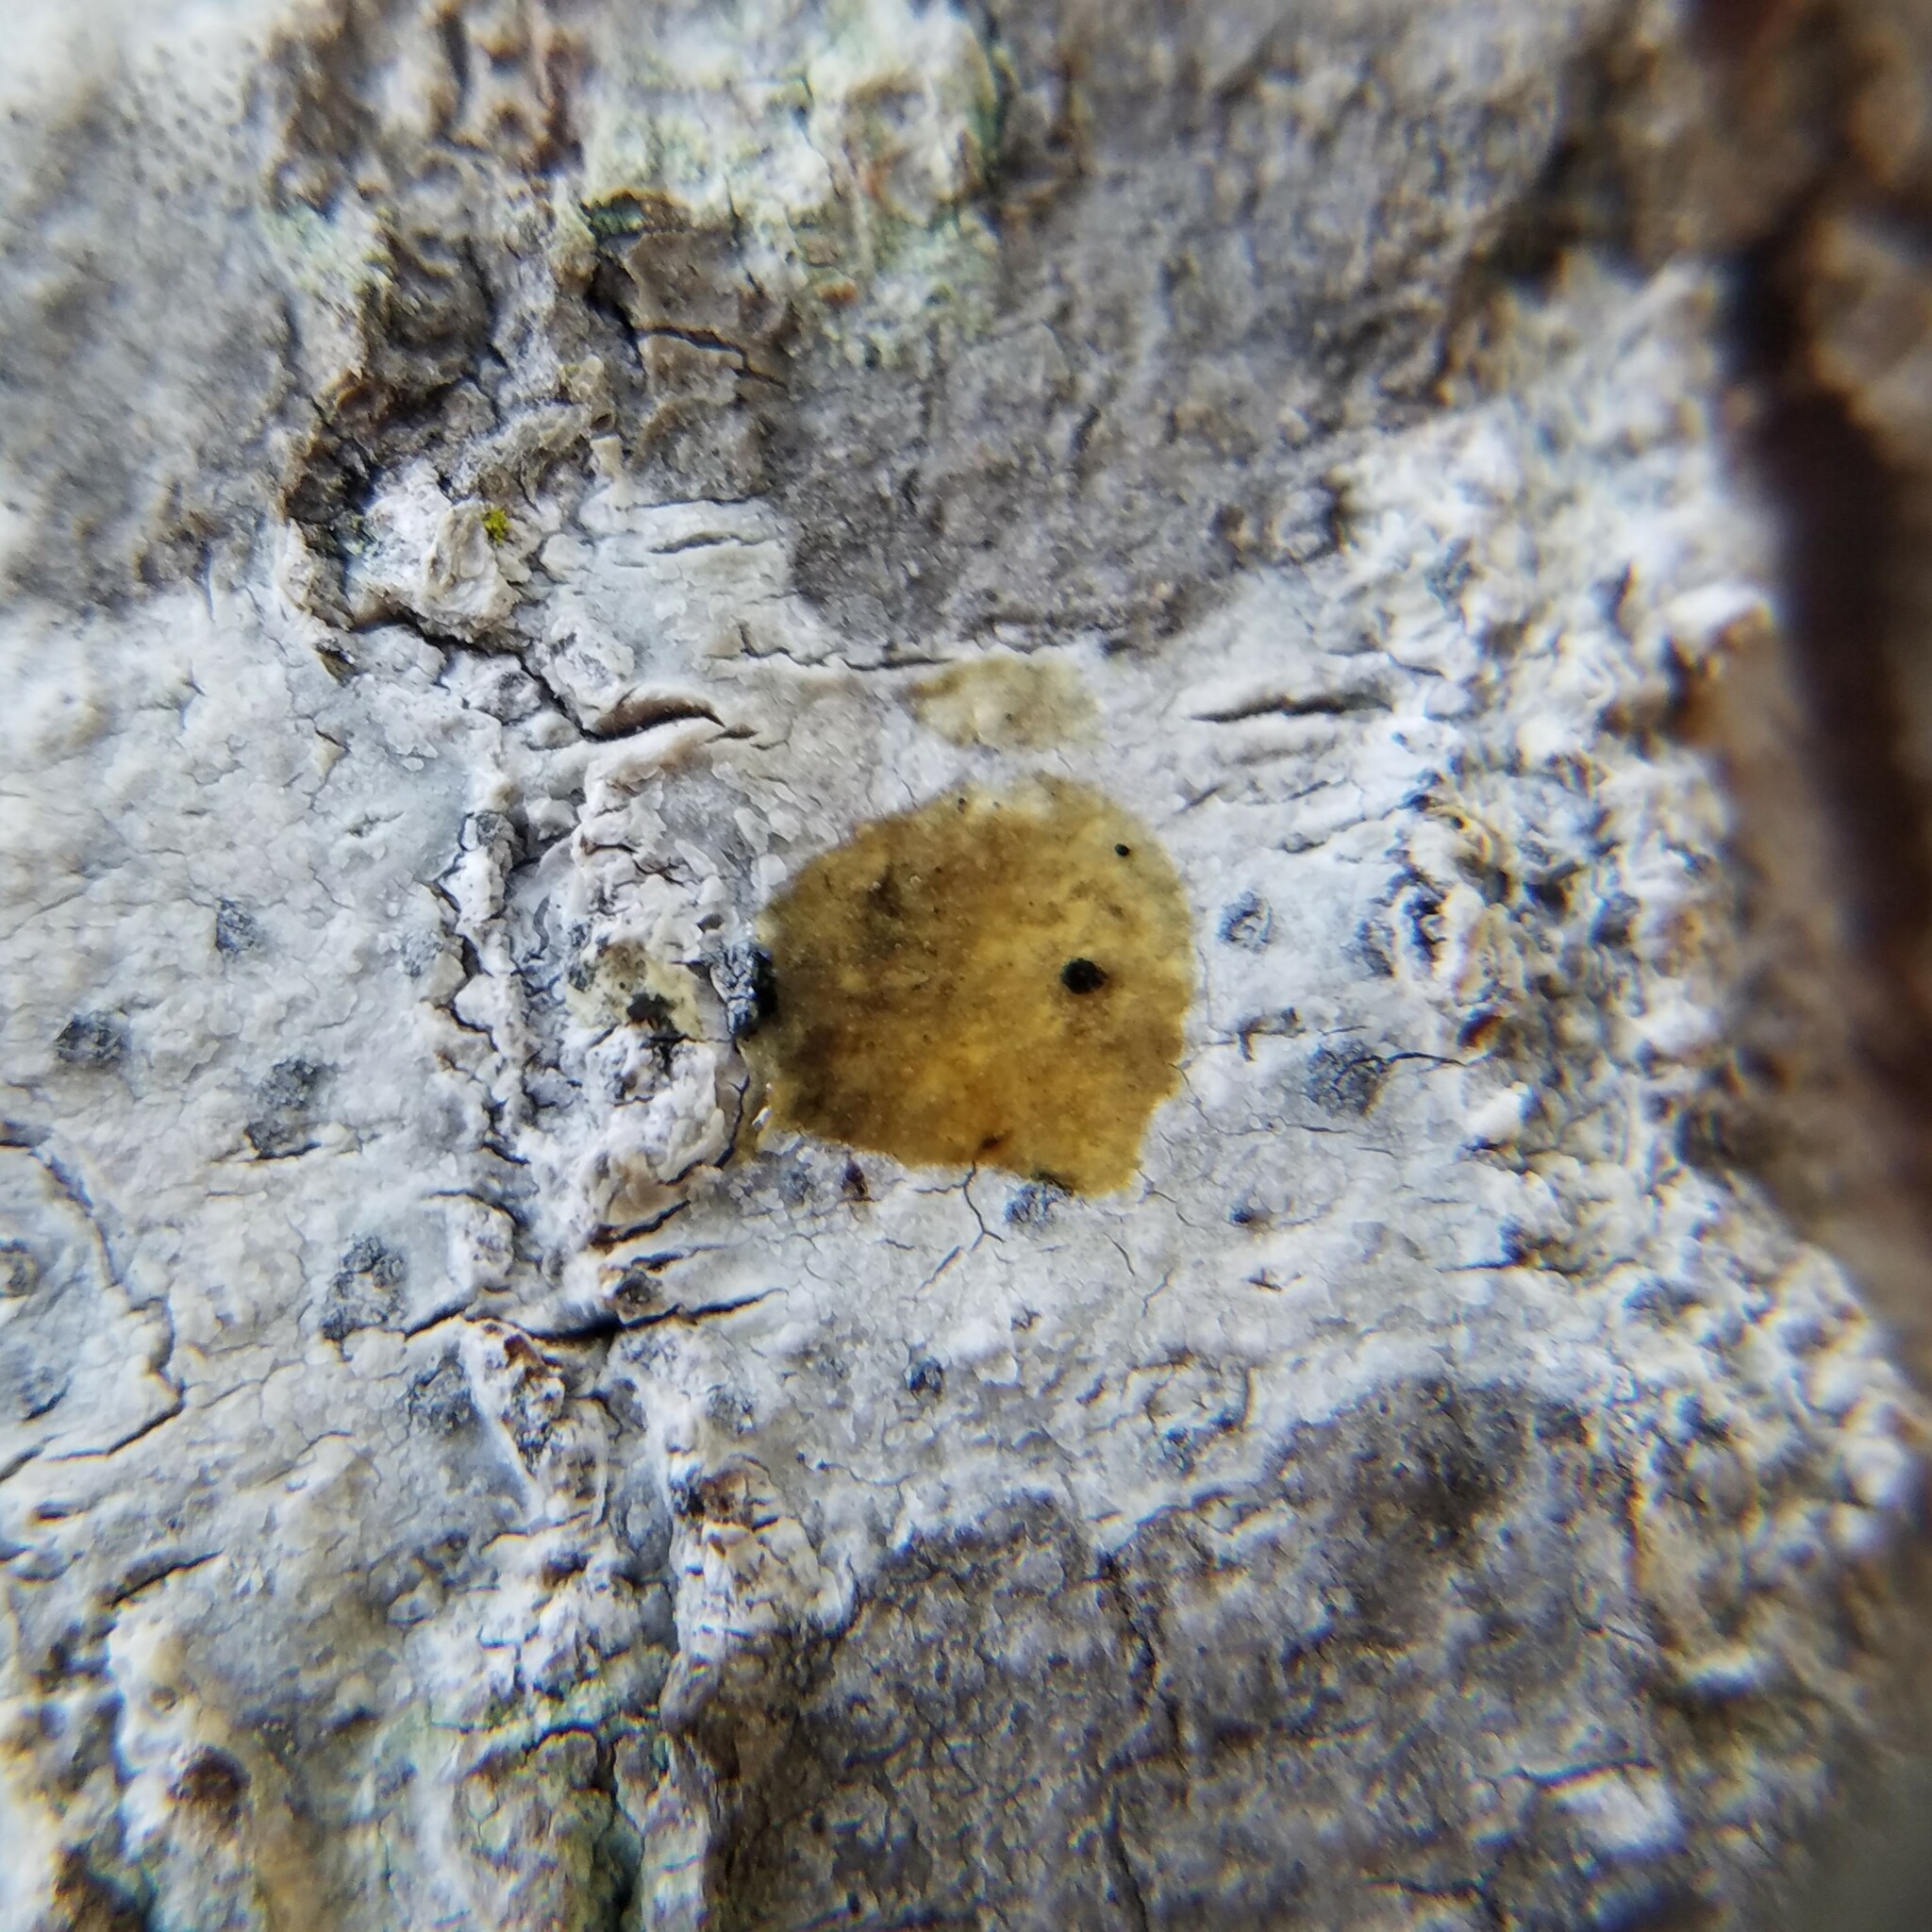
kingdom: Fungi
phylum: Ascomycota
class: Arthoniomycetes
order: Arthoniales
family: Arthoniaceae
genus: Arthonia
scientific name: Arthonia
